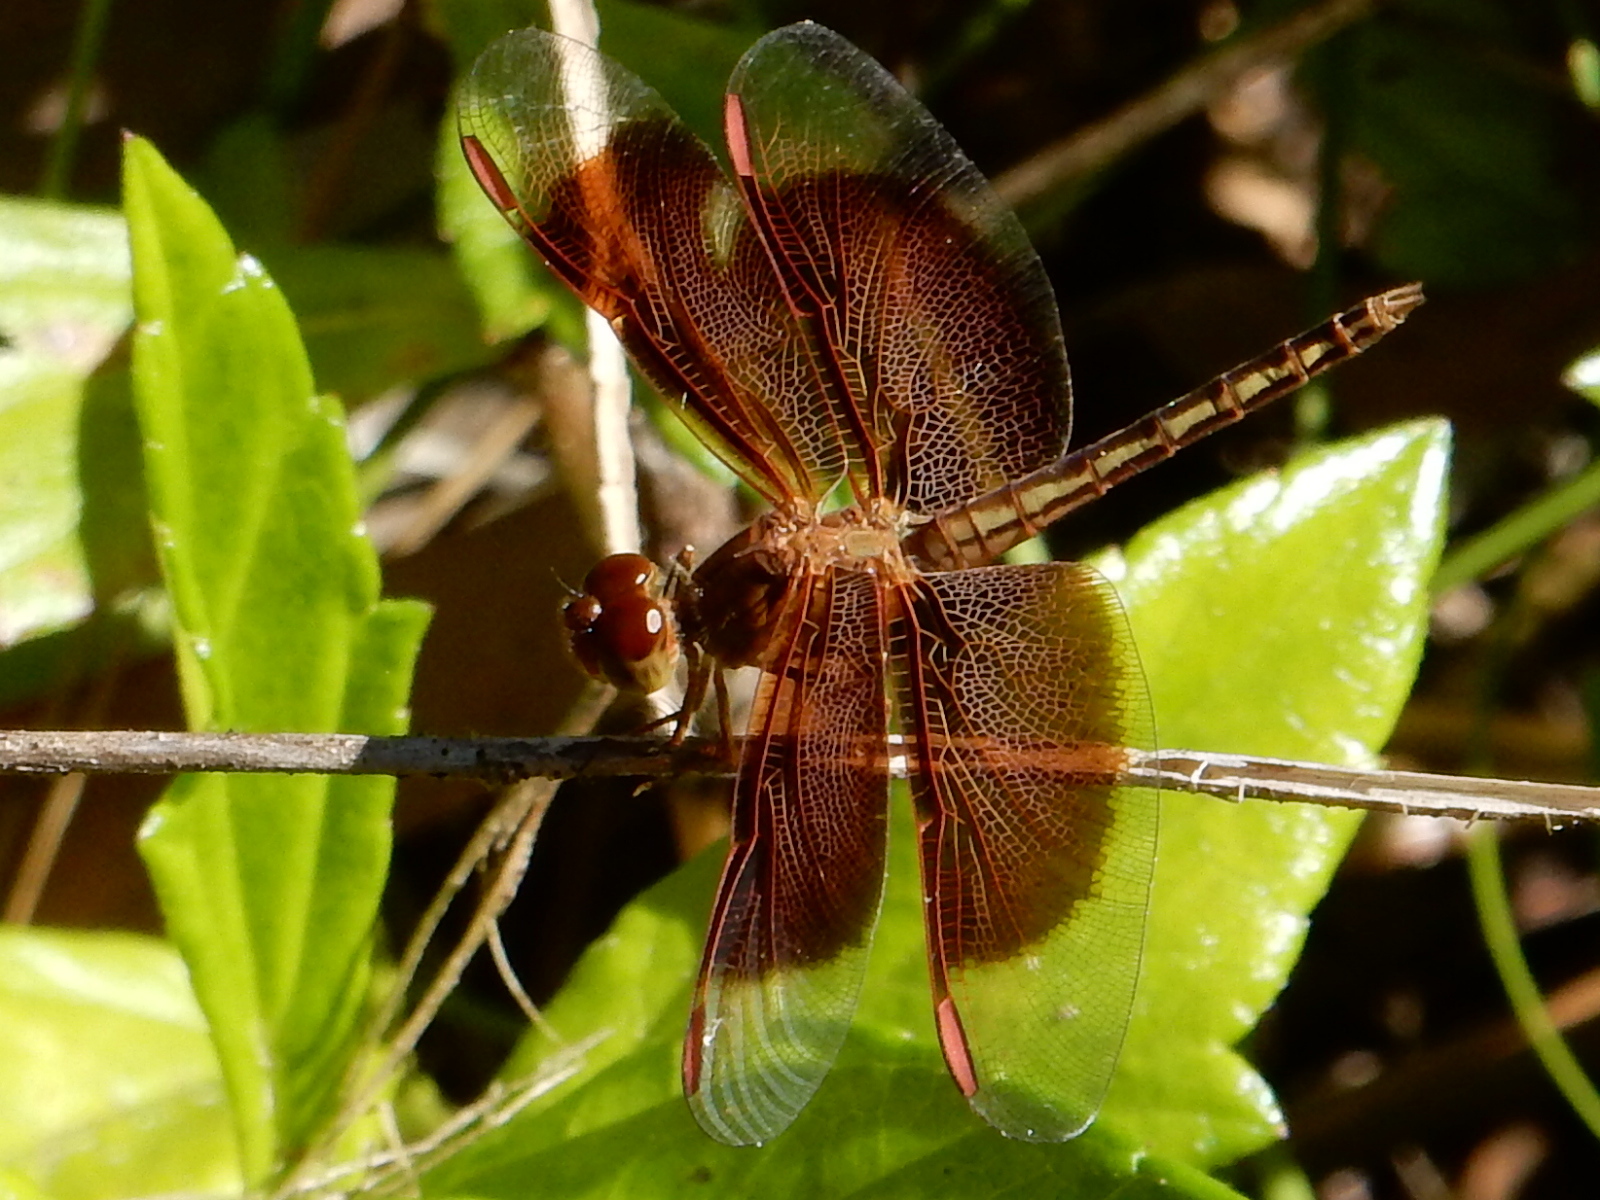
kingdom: Animalia
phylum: Arthropoda
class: Insecta
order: Odonata
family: Libellulidae
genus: Neurothemis
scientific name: Neurothemis stigmatizans
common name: Painted grasshawk
